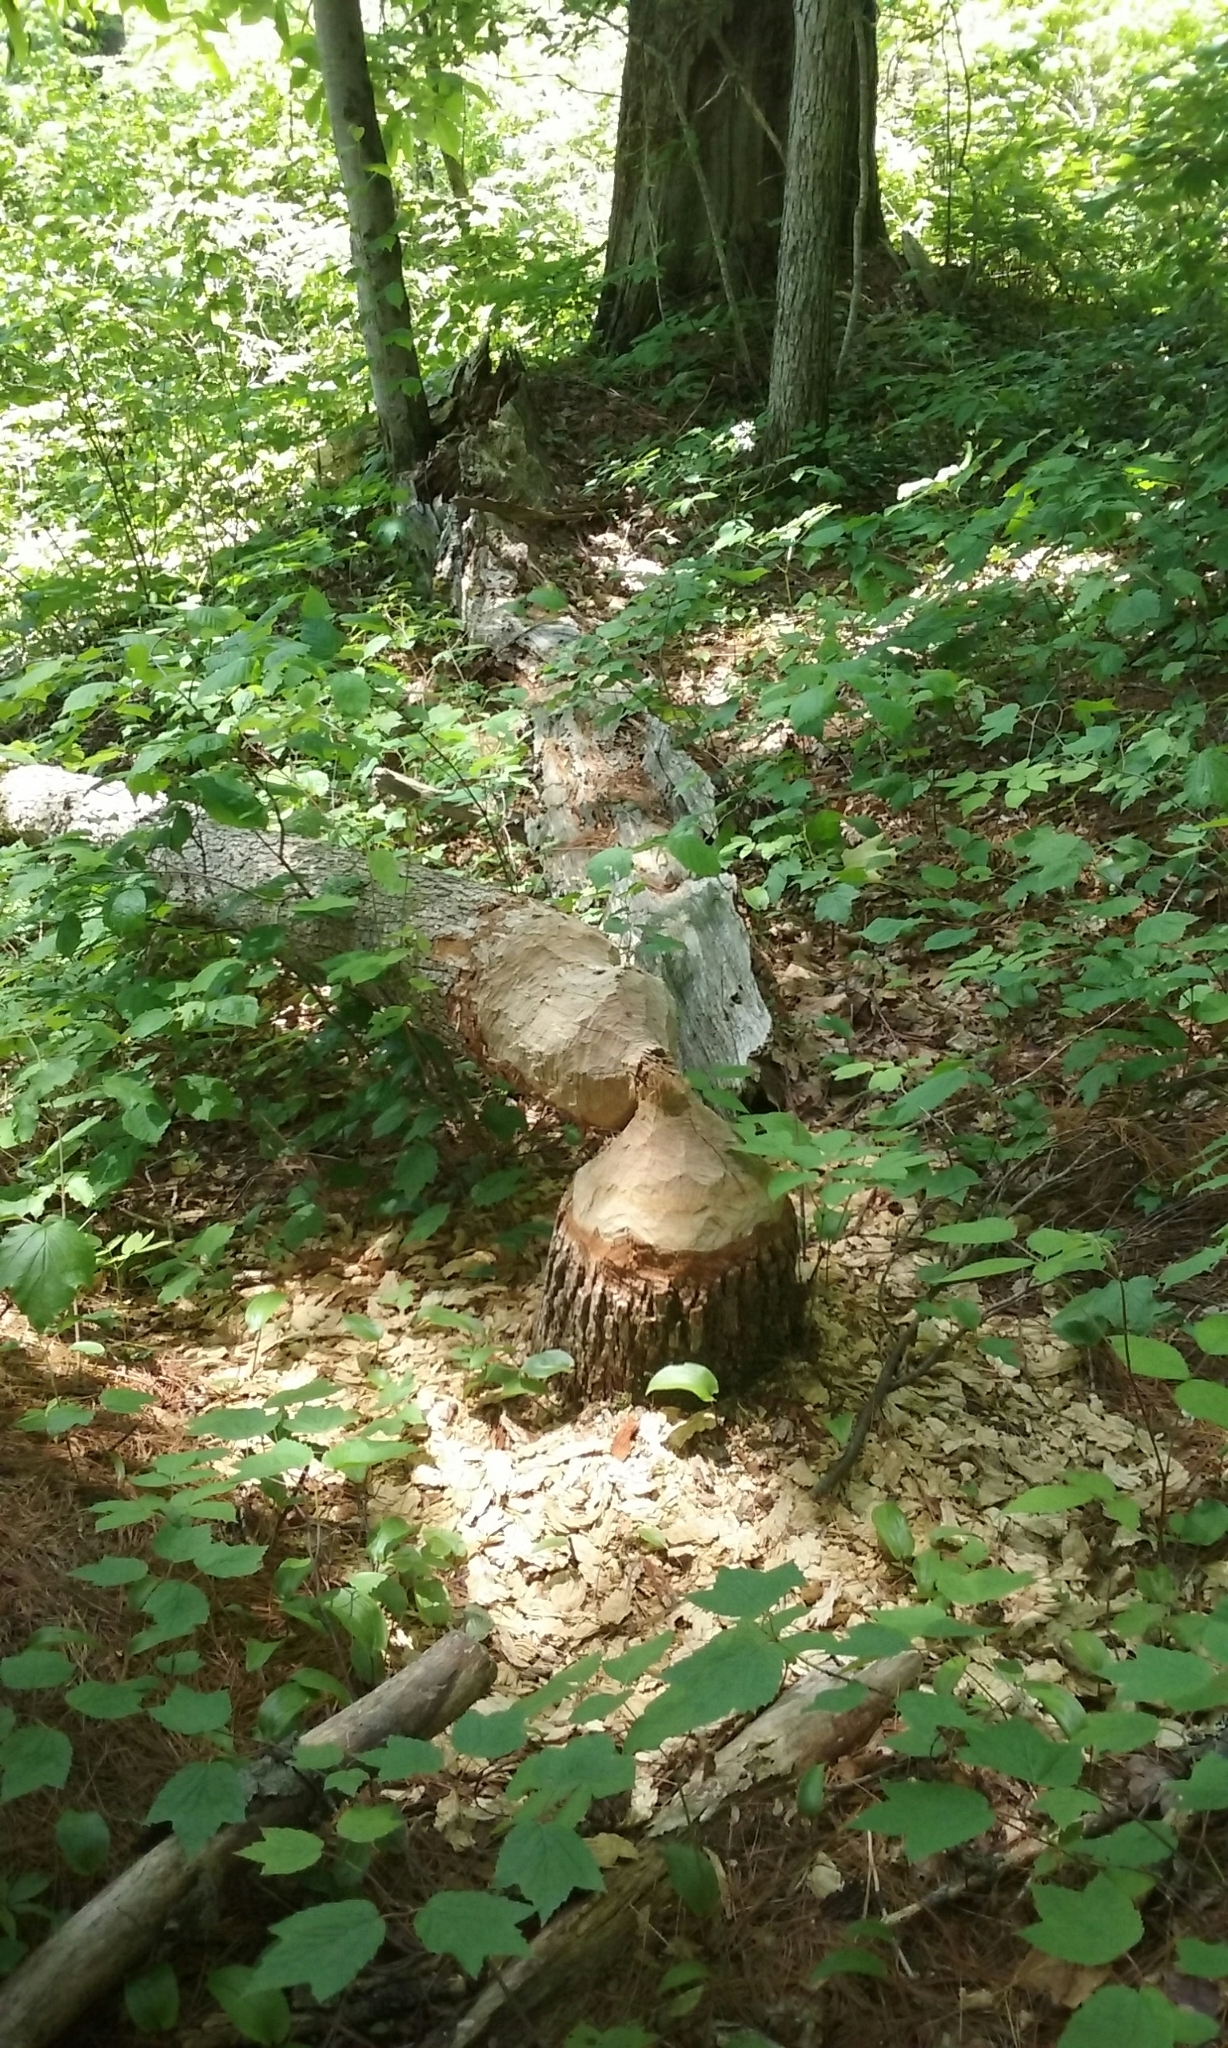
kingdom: Animalia
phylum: Chordata
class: Mammalia
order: Rodentia
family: Castoridae
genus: Castor
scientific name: Castor canadensis
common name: American beaver
